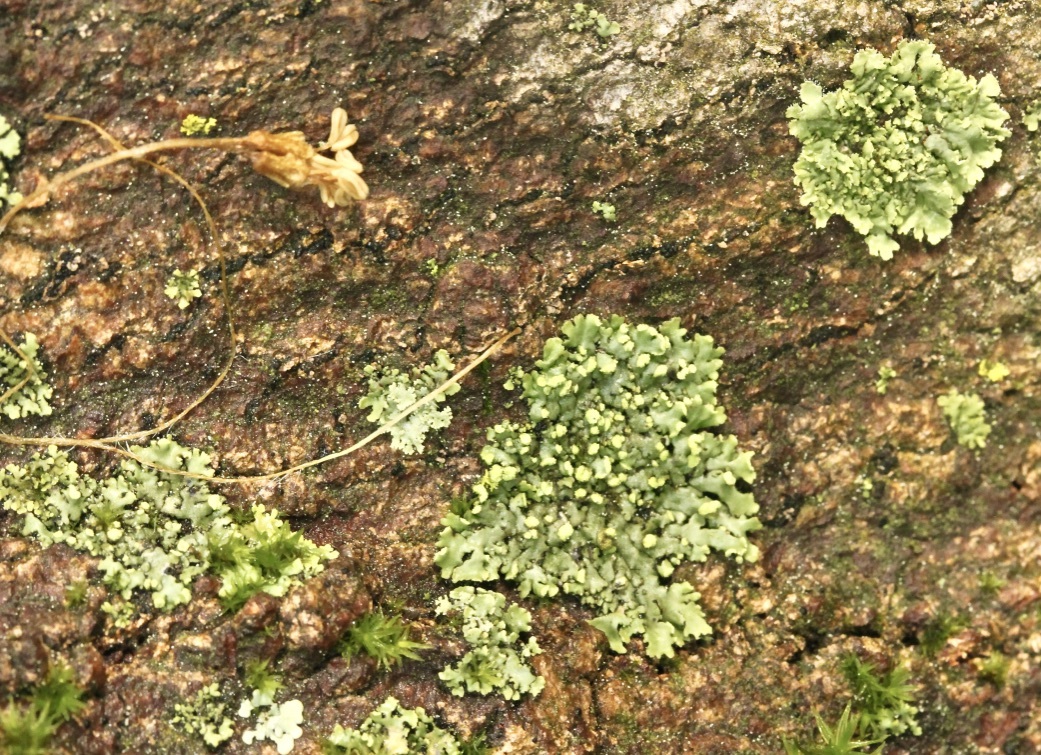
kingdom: Fungi
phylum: Ascomycota
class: Lecanoromycetes
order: Caliciales
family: Physciaceae
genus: Phaeophyscia
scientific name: Phaeophyscia rubropulchra
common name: Orange-cored shadow lichen
